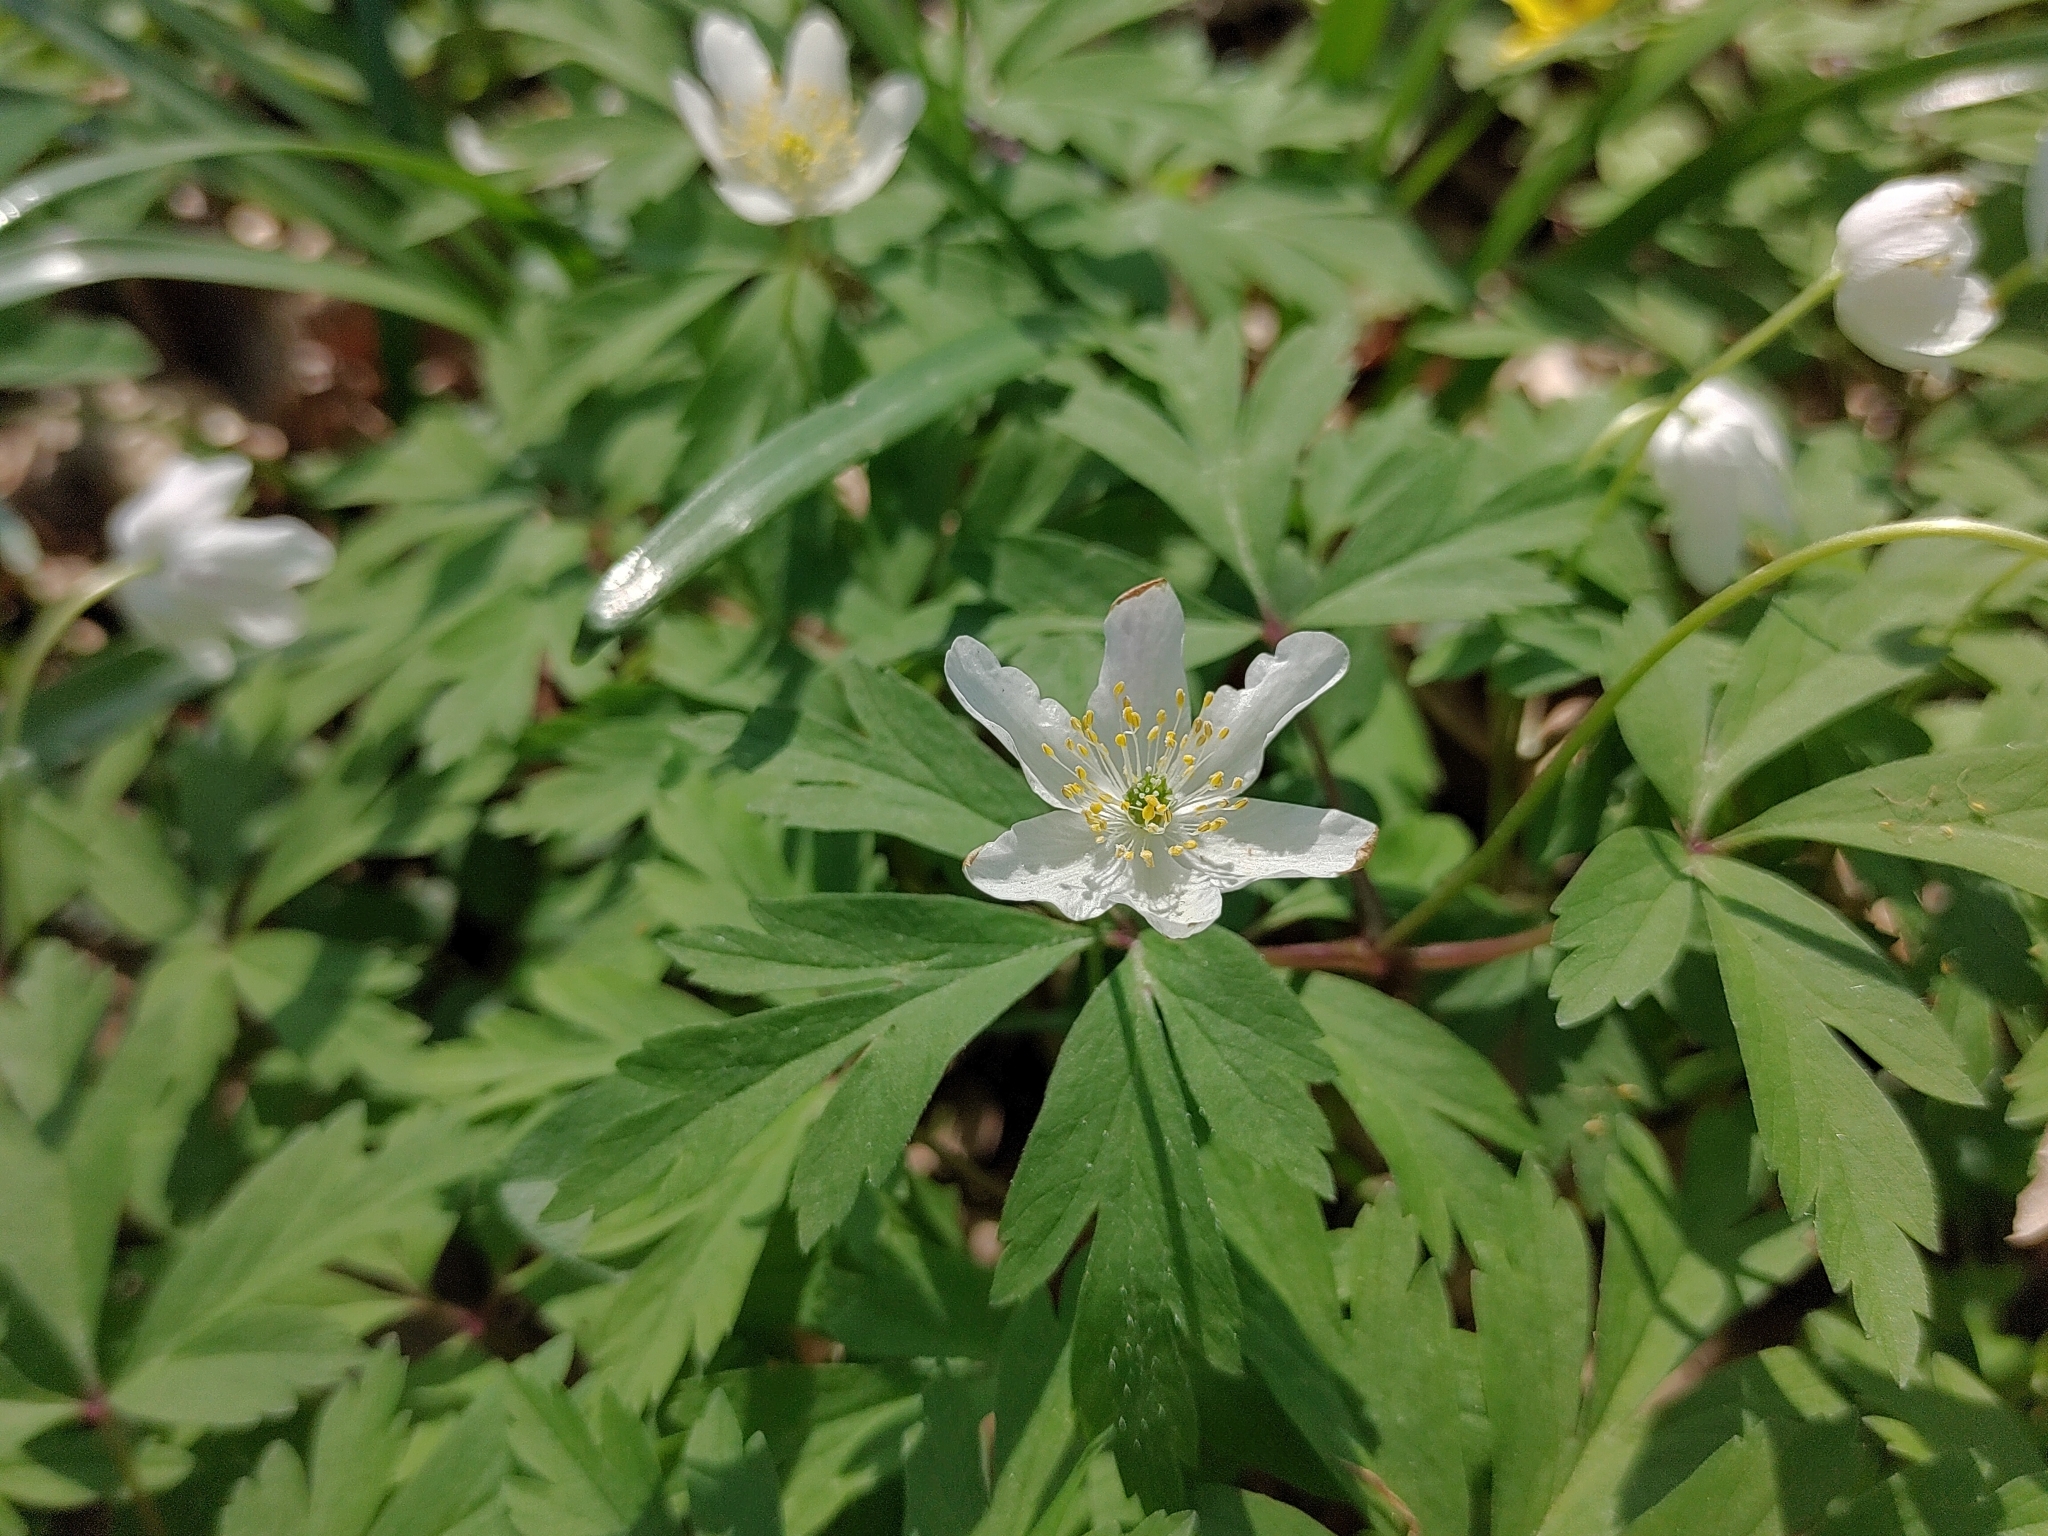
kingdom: Plantae
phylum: Tracheophyta
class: Magnoliopsida
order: Ranunculales
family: Ranunculaceae
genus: Anemone
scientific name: Anemone nemorosa
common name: Wood anemone
